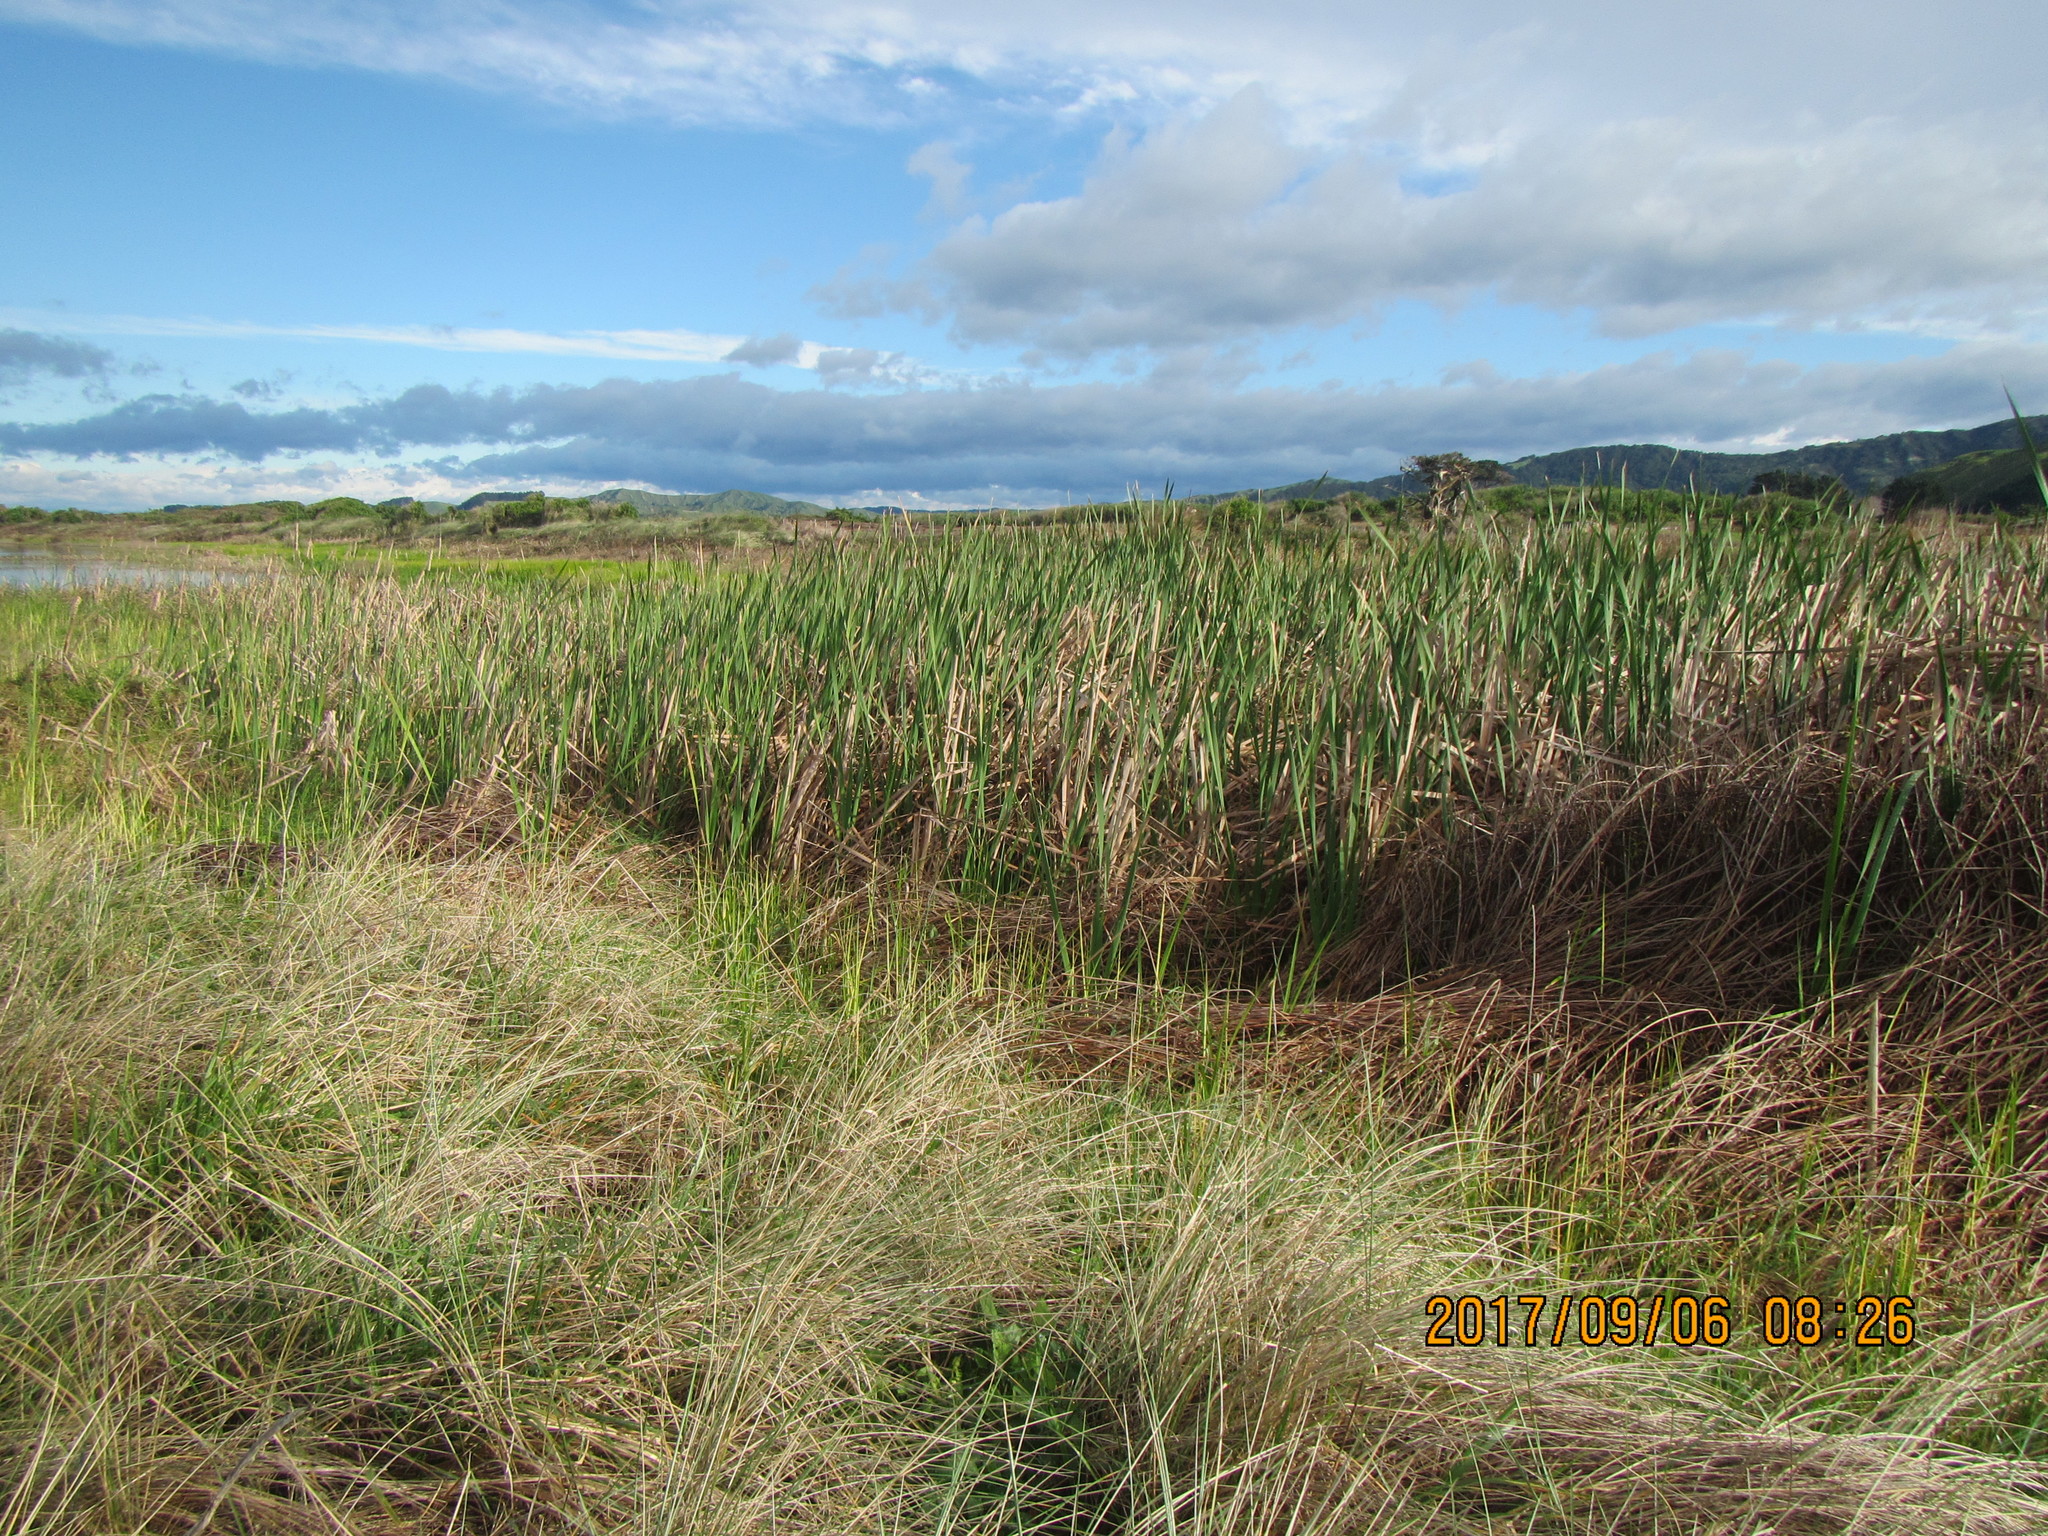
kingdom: Plantae
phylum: Tracheophyta
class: Liliopsida
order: Poales
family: Typhaceae
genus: Typha
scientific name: Typha orientalis
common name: Bullrush
